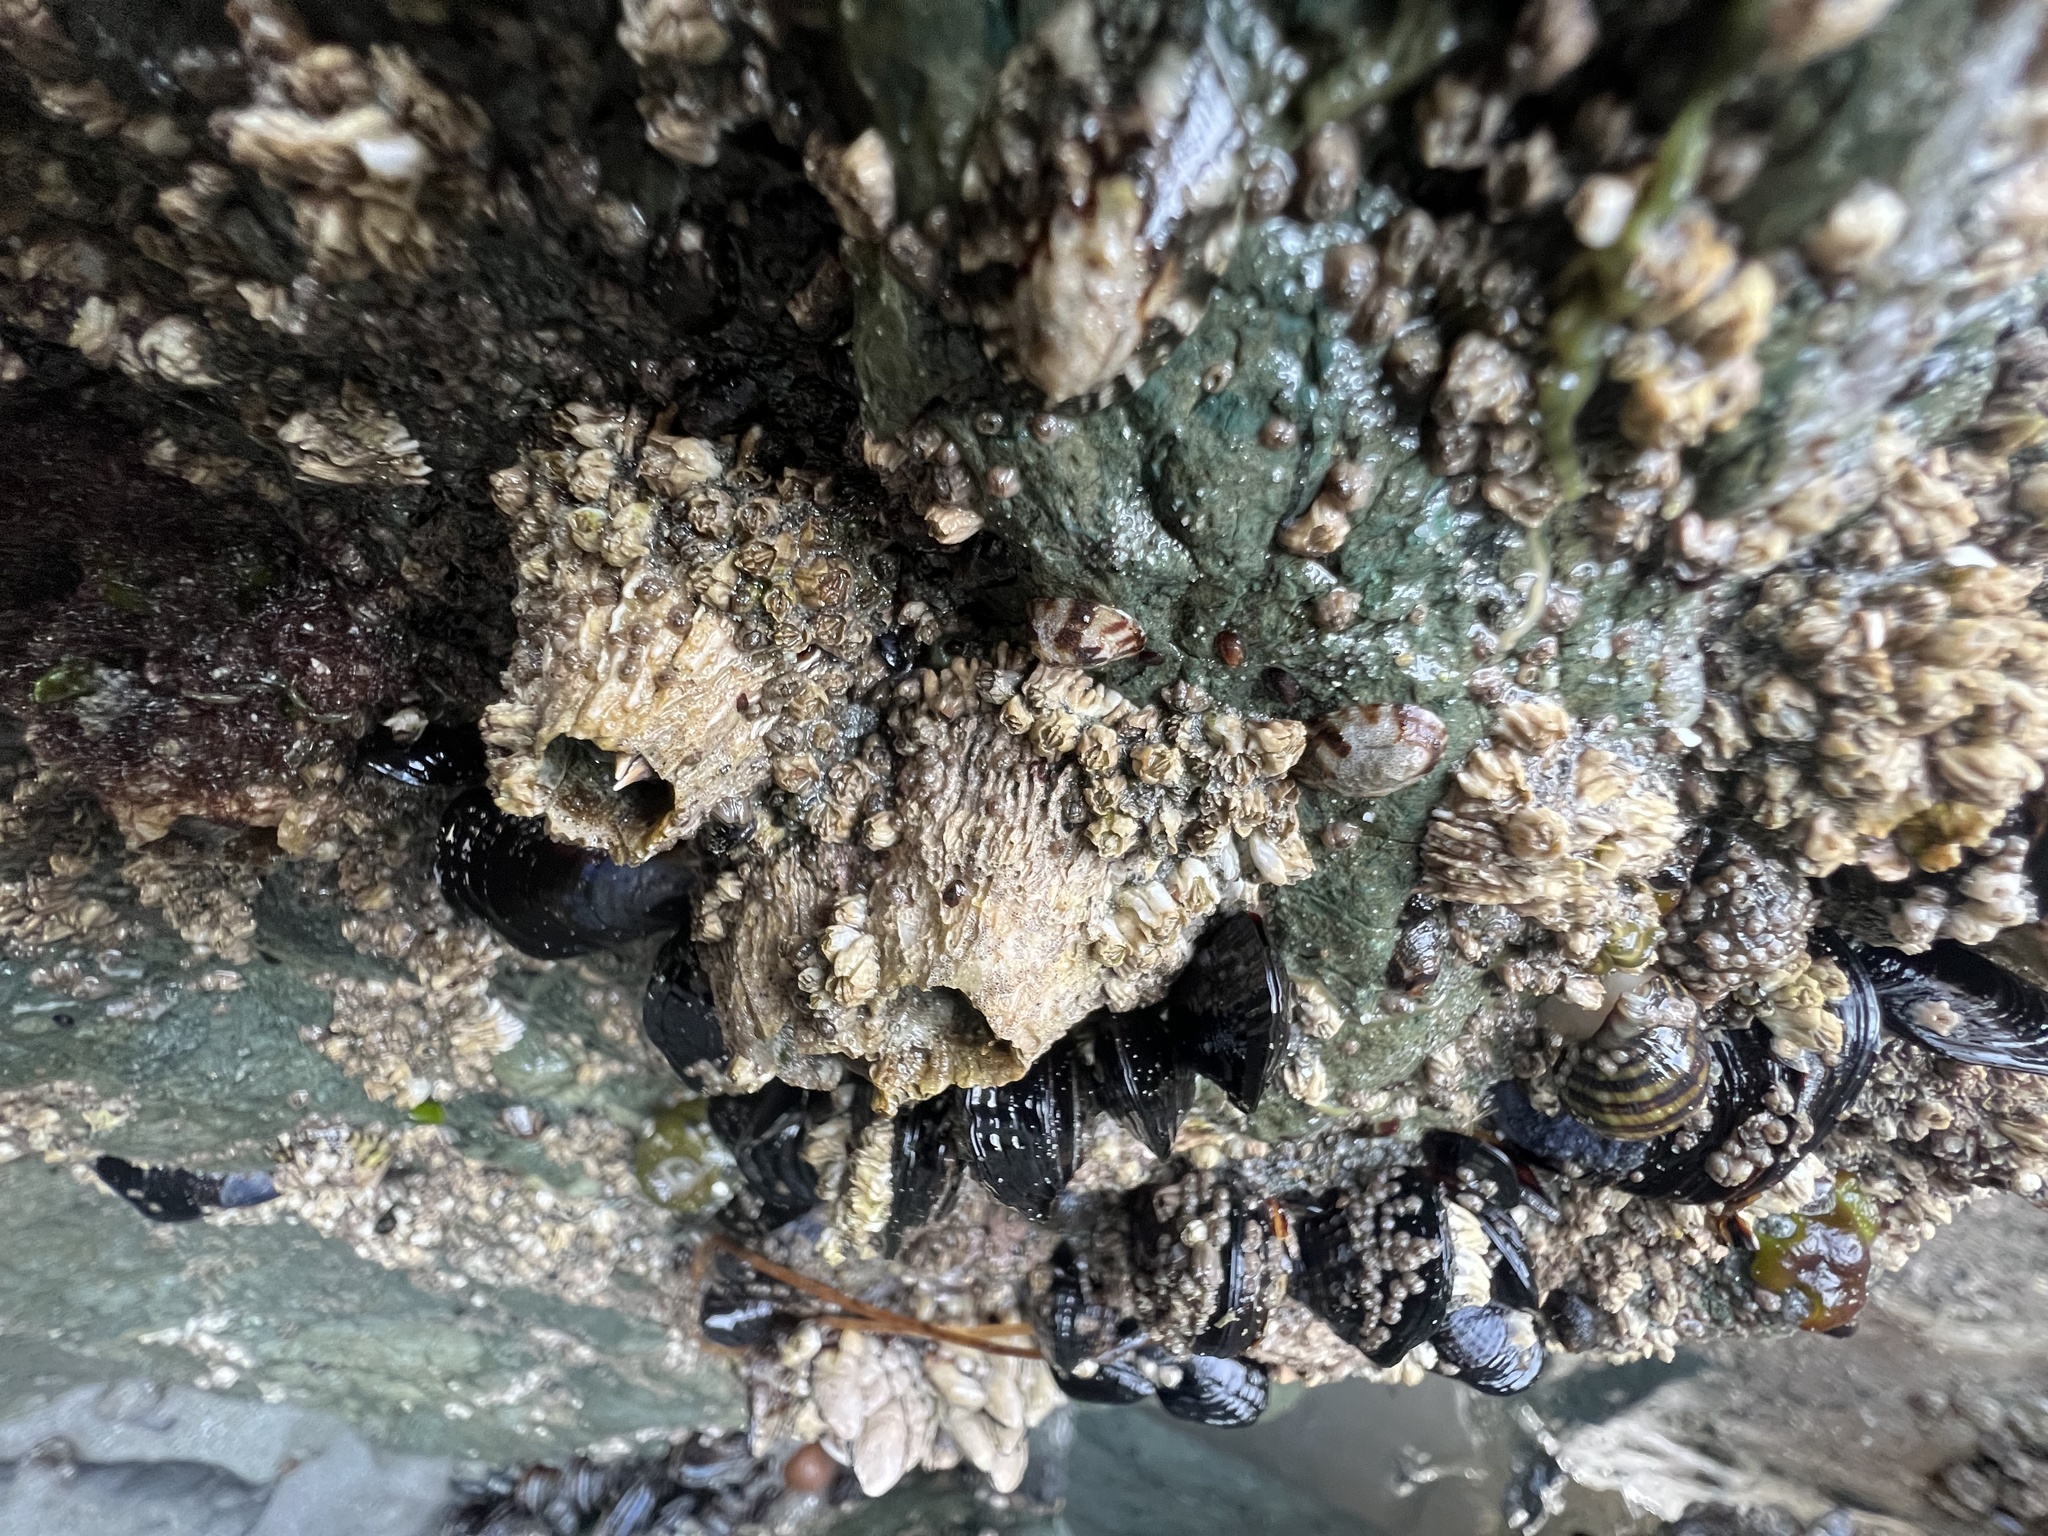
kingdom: Animalia
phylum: Arthropoda
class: Maxillopoda
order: Sessilia
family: Archaeobalanidae
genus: Semibalanus
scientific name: Semibalanus cariosus
